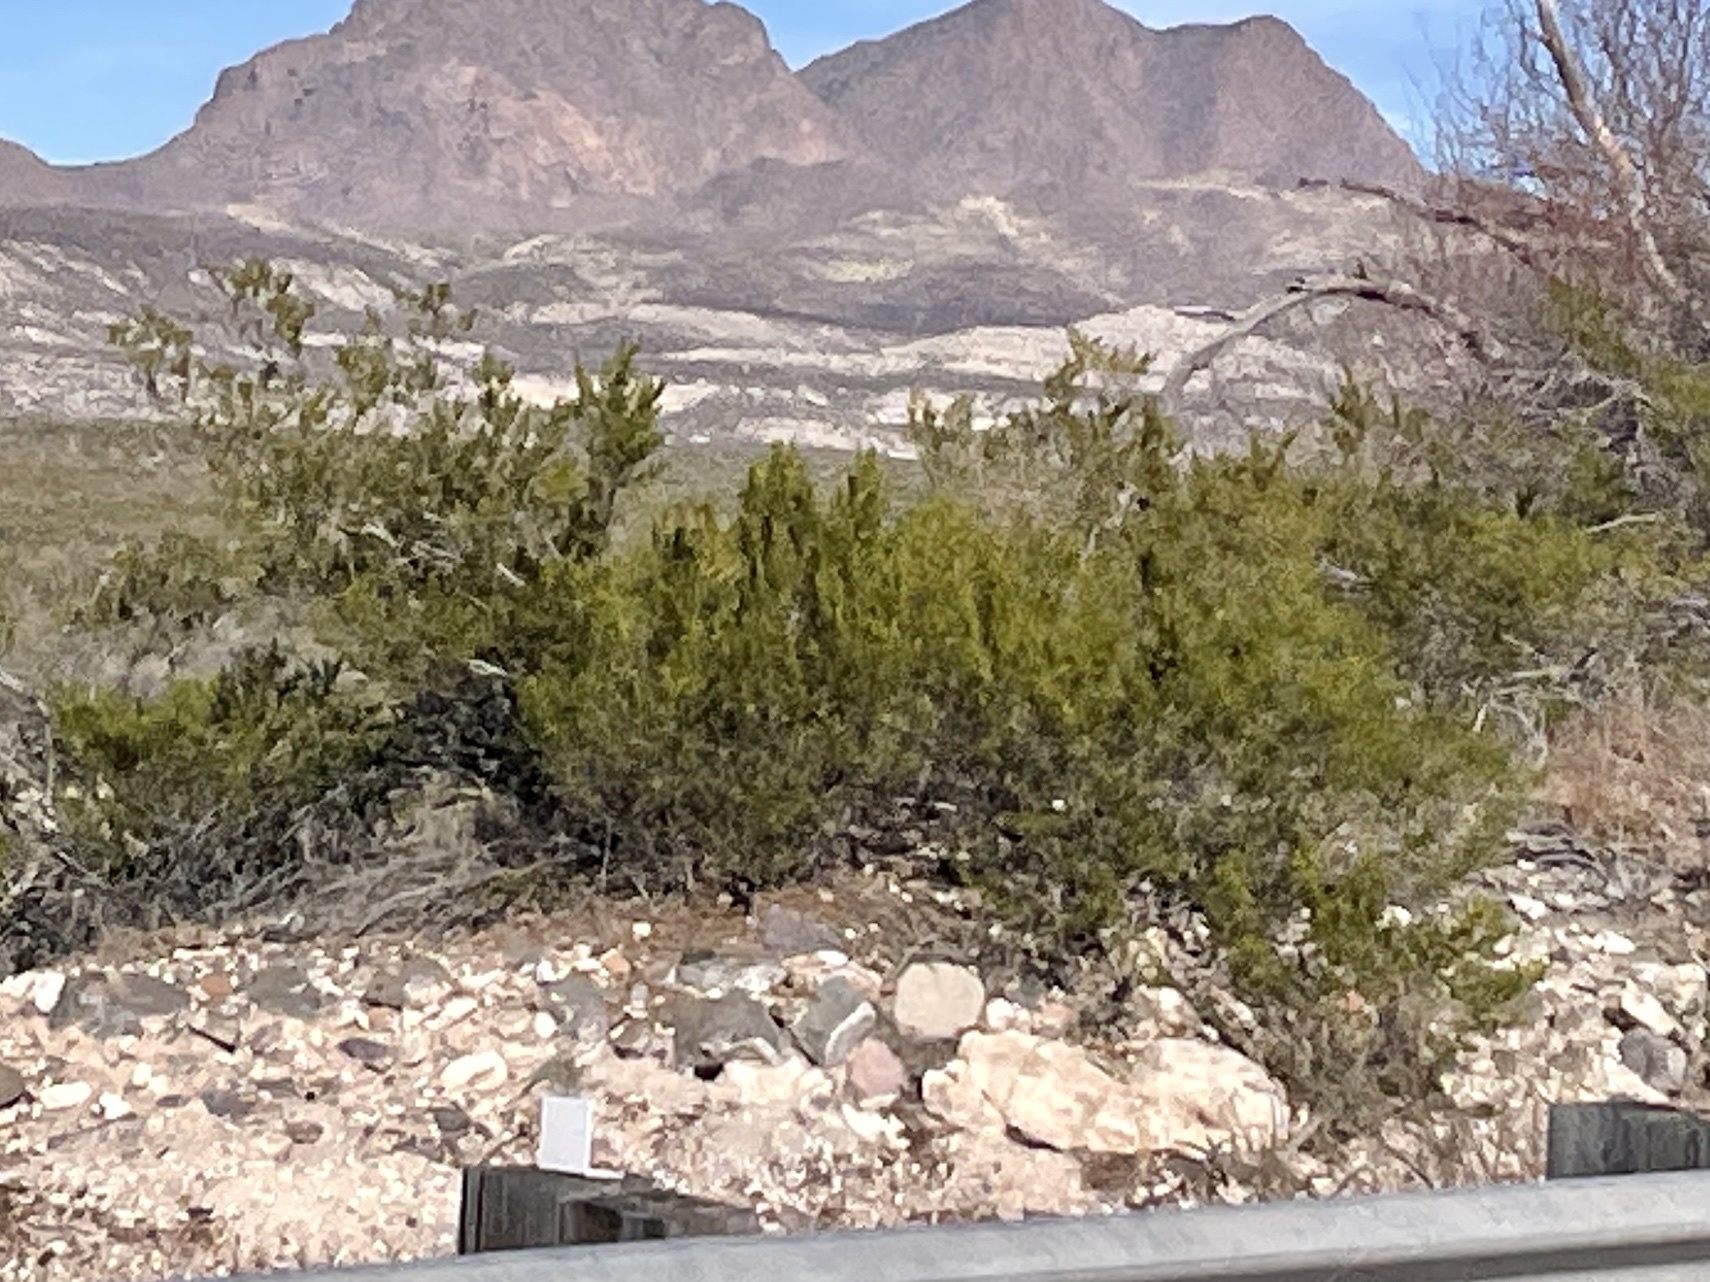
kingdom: Plantae
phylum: Tracheophyta
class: Magnoliopsida
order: Zygophyllales
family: Zygophyllaceae
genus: Larrea
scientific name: Larrea tridentata
